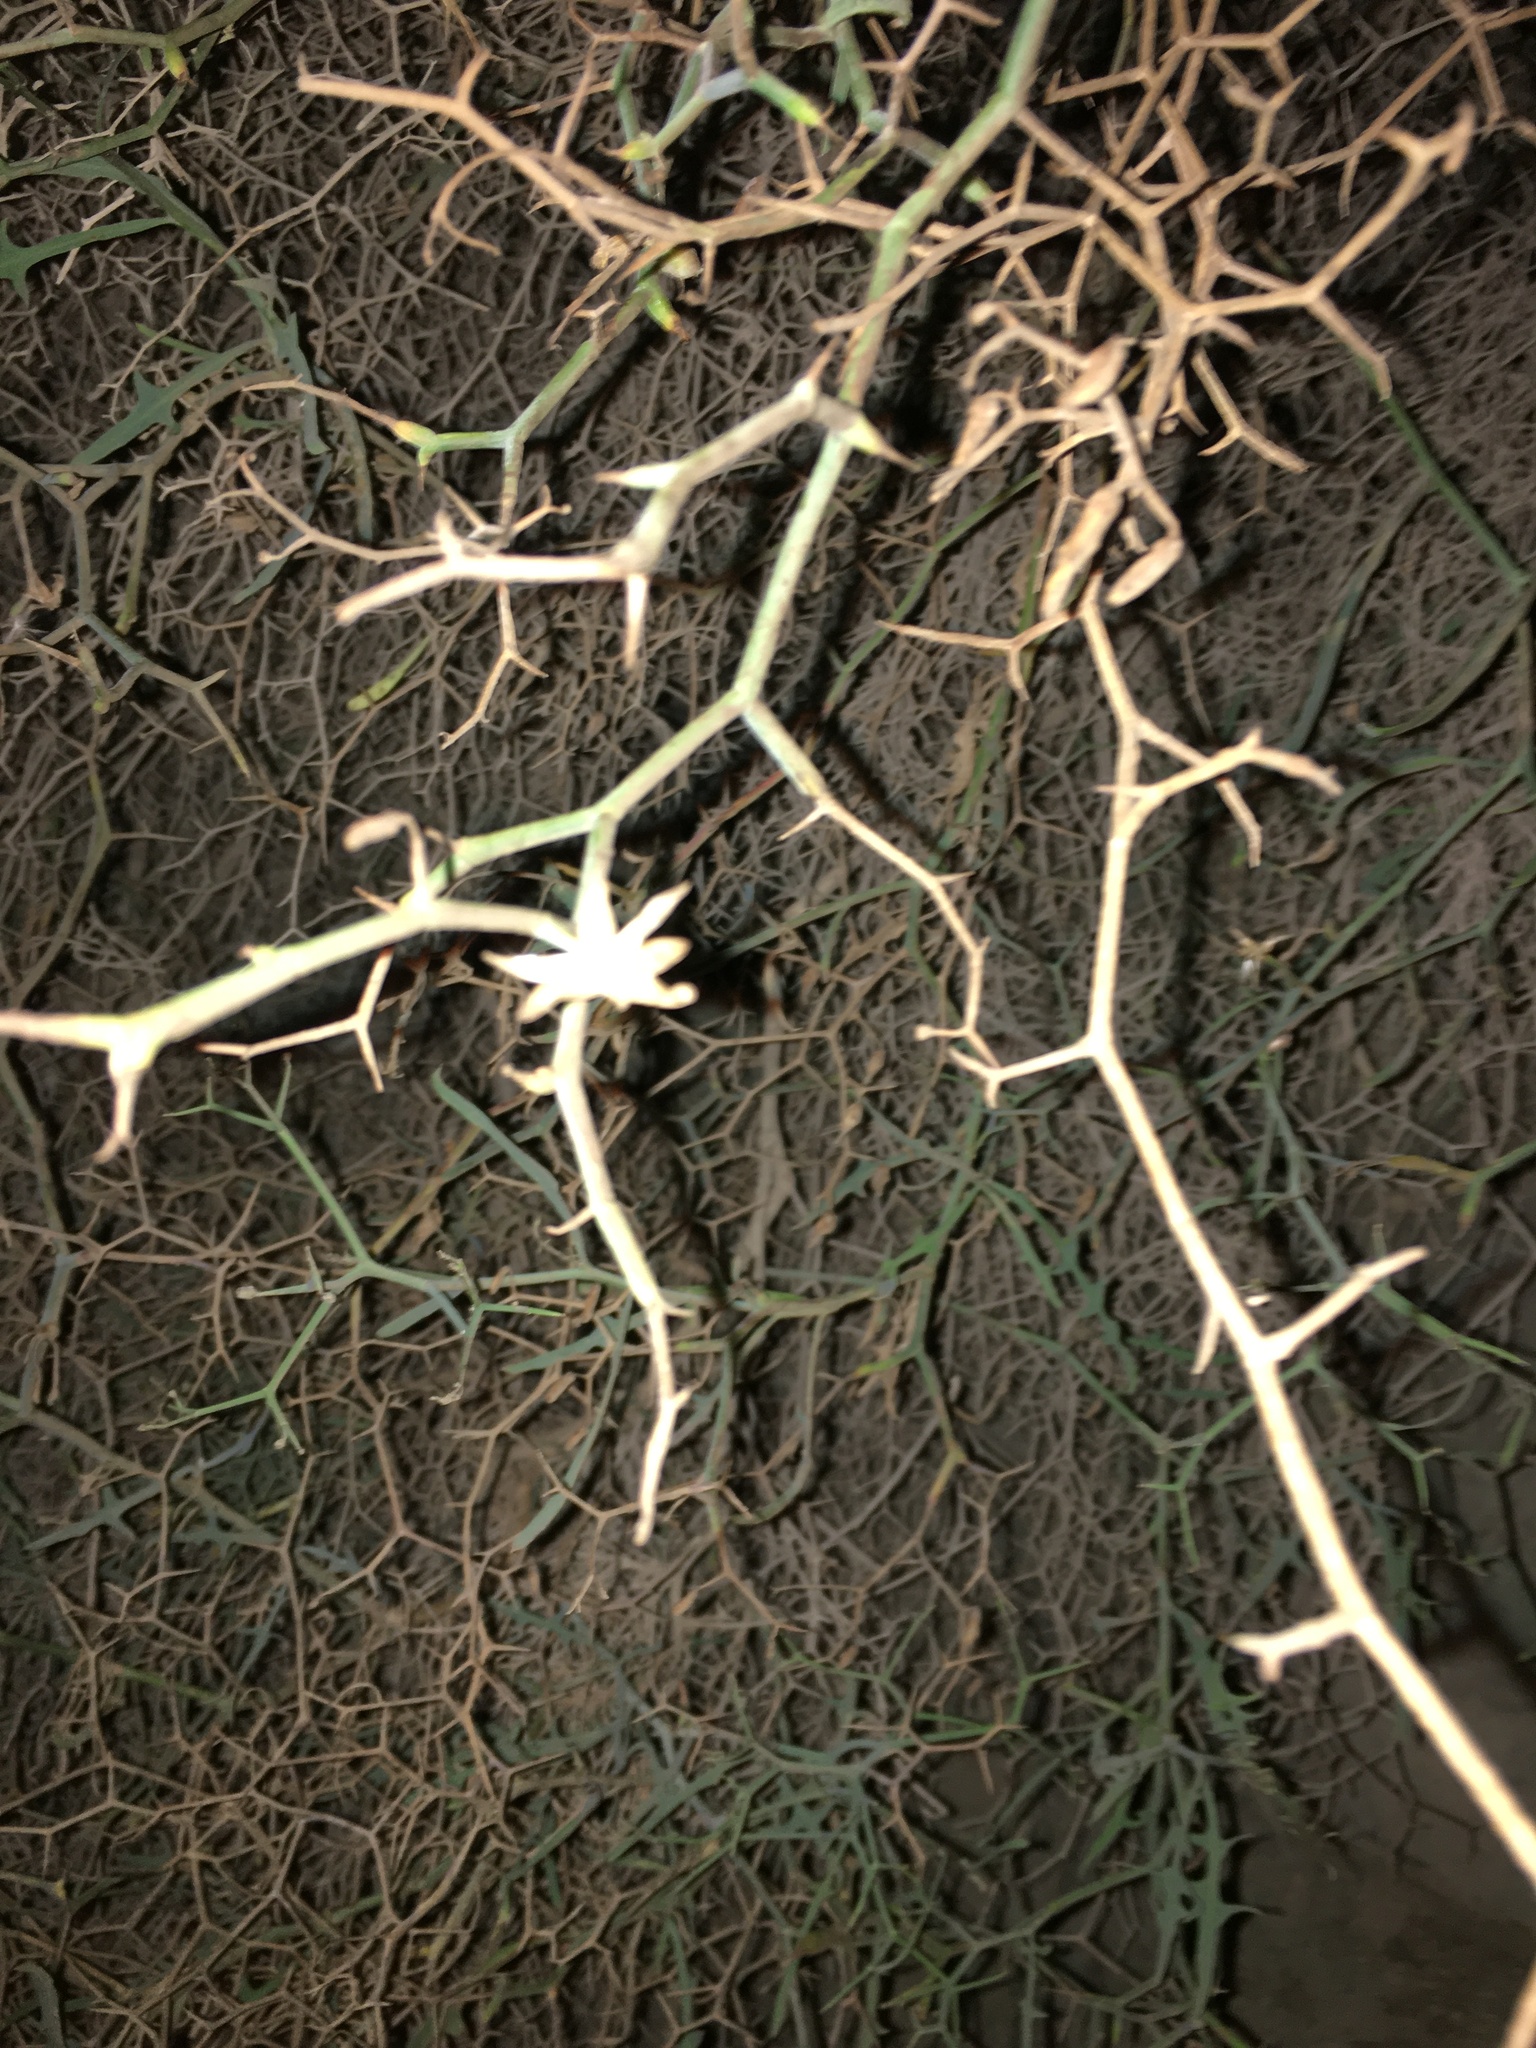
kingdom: Plantae
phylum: Tracheophyta
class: Magnoliopsida
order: Asterales
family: Asteraceae
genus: Launaea
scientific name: Launaea arborescens
